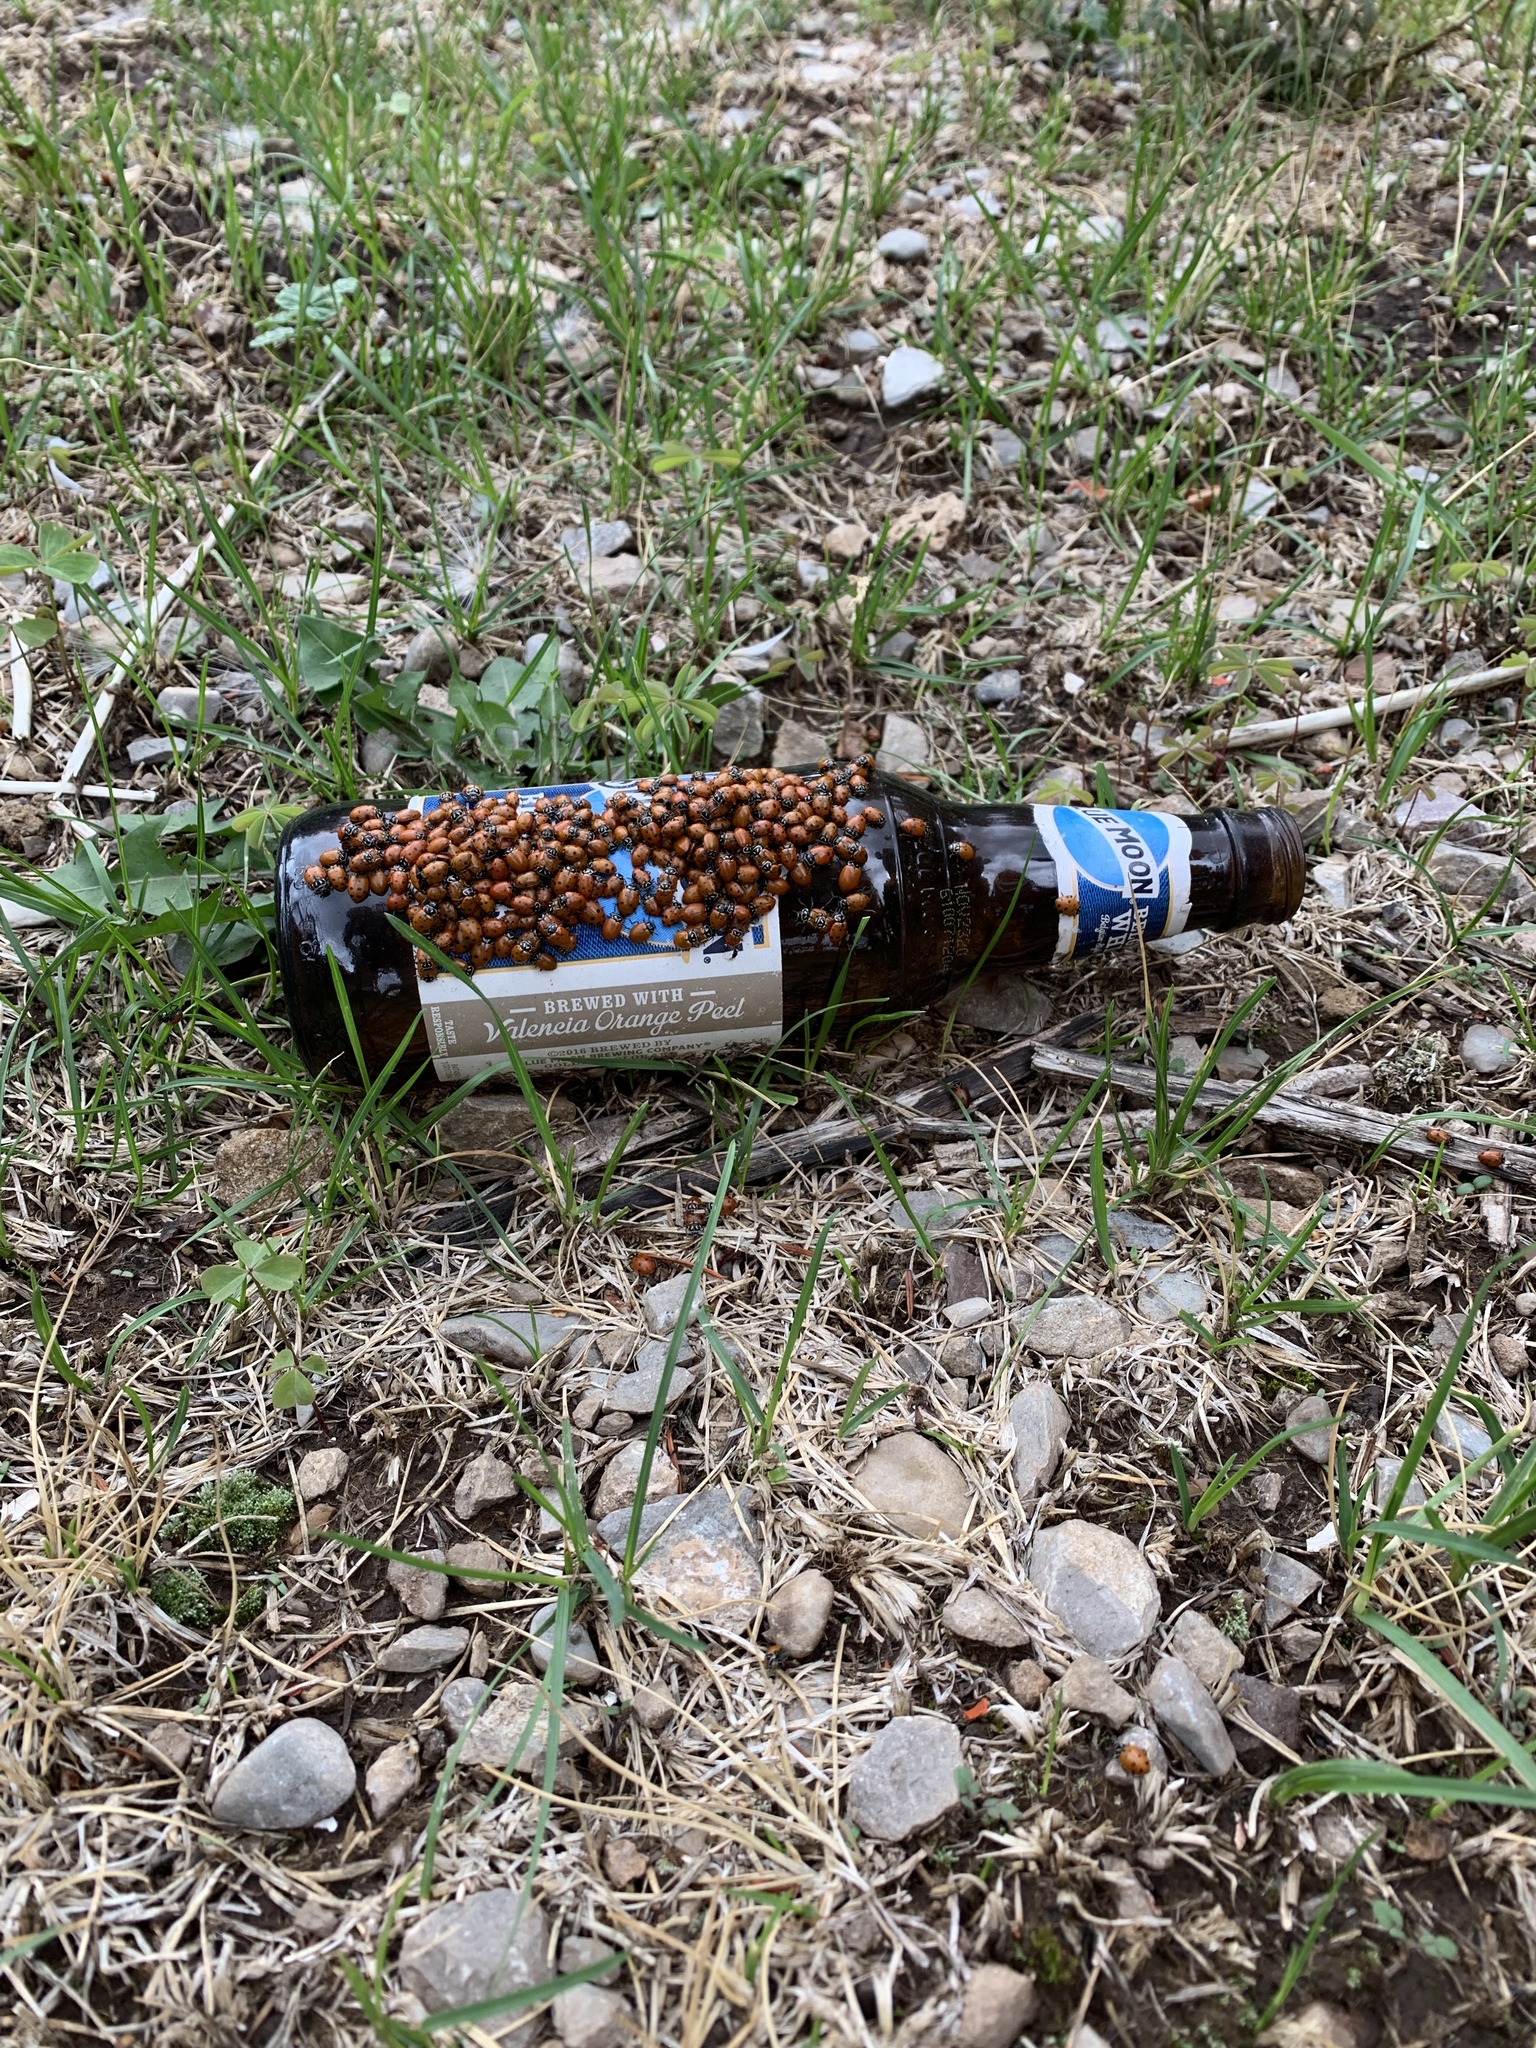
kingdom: Animalia
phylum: Arthropoda
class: Insecta
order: Coleoptera
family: Coccinellidae
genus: Hippodamia
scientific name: Hippodamia convergens
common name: Convergent lady beetle
